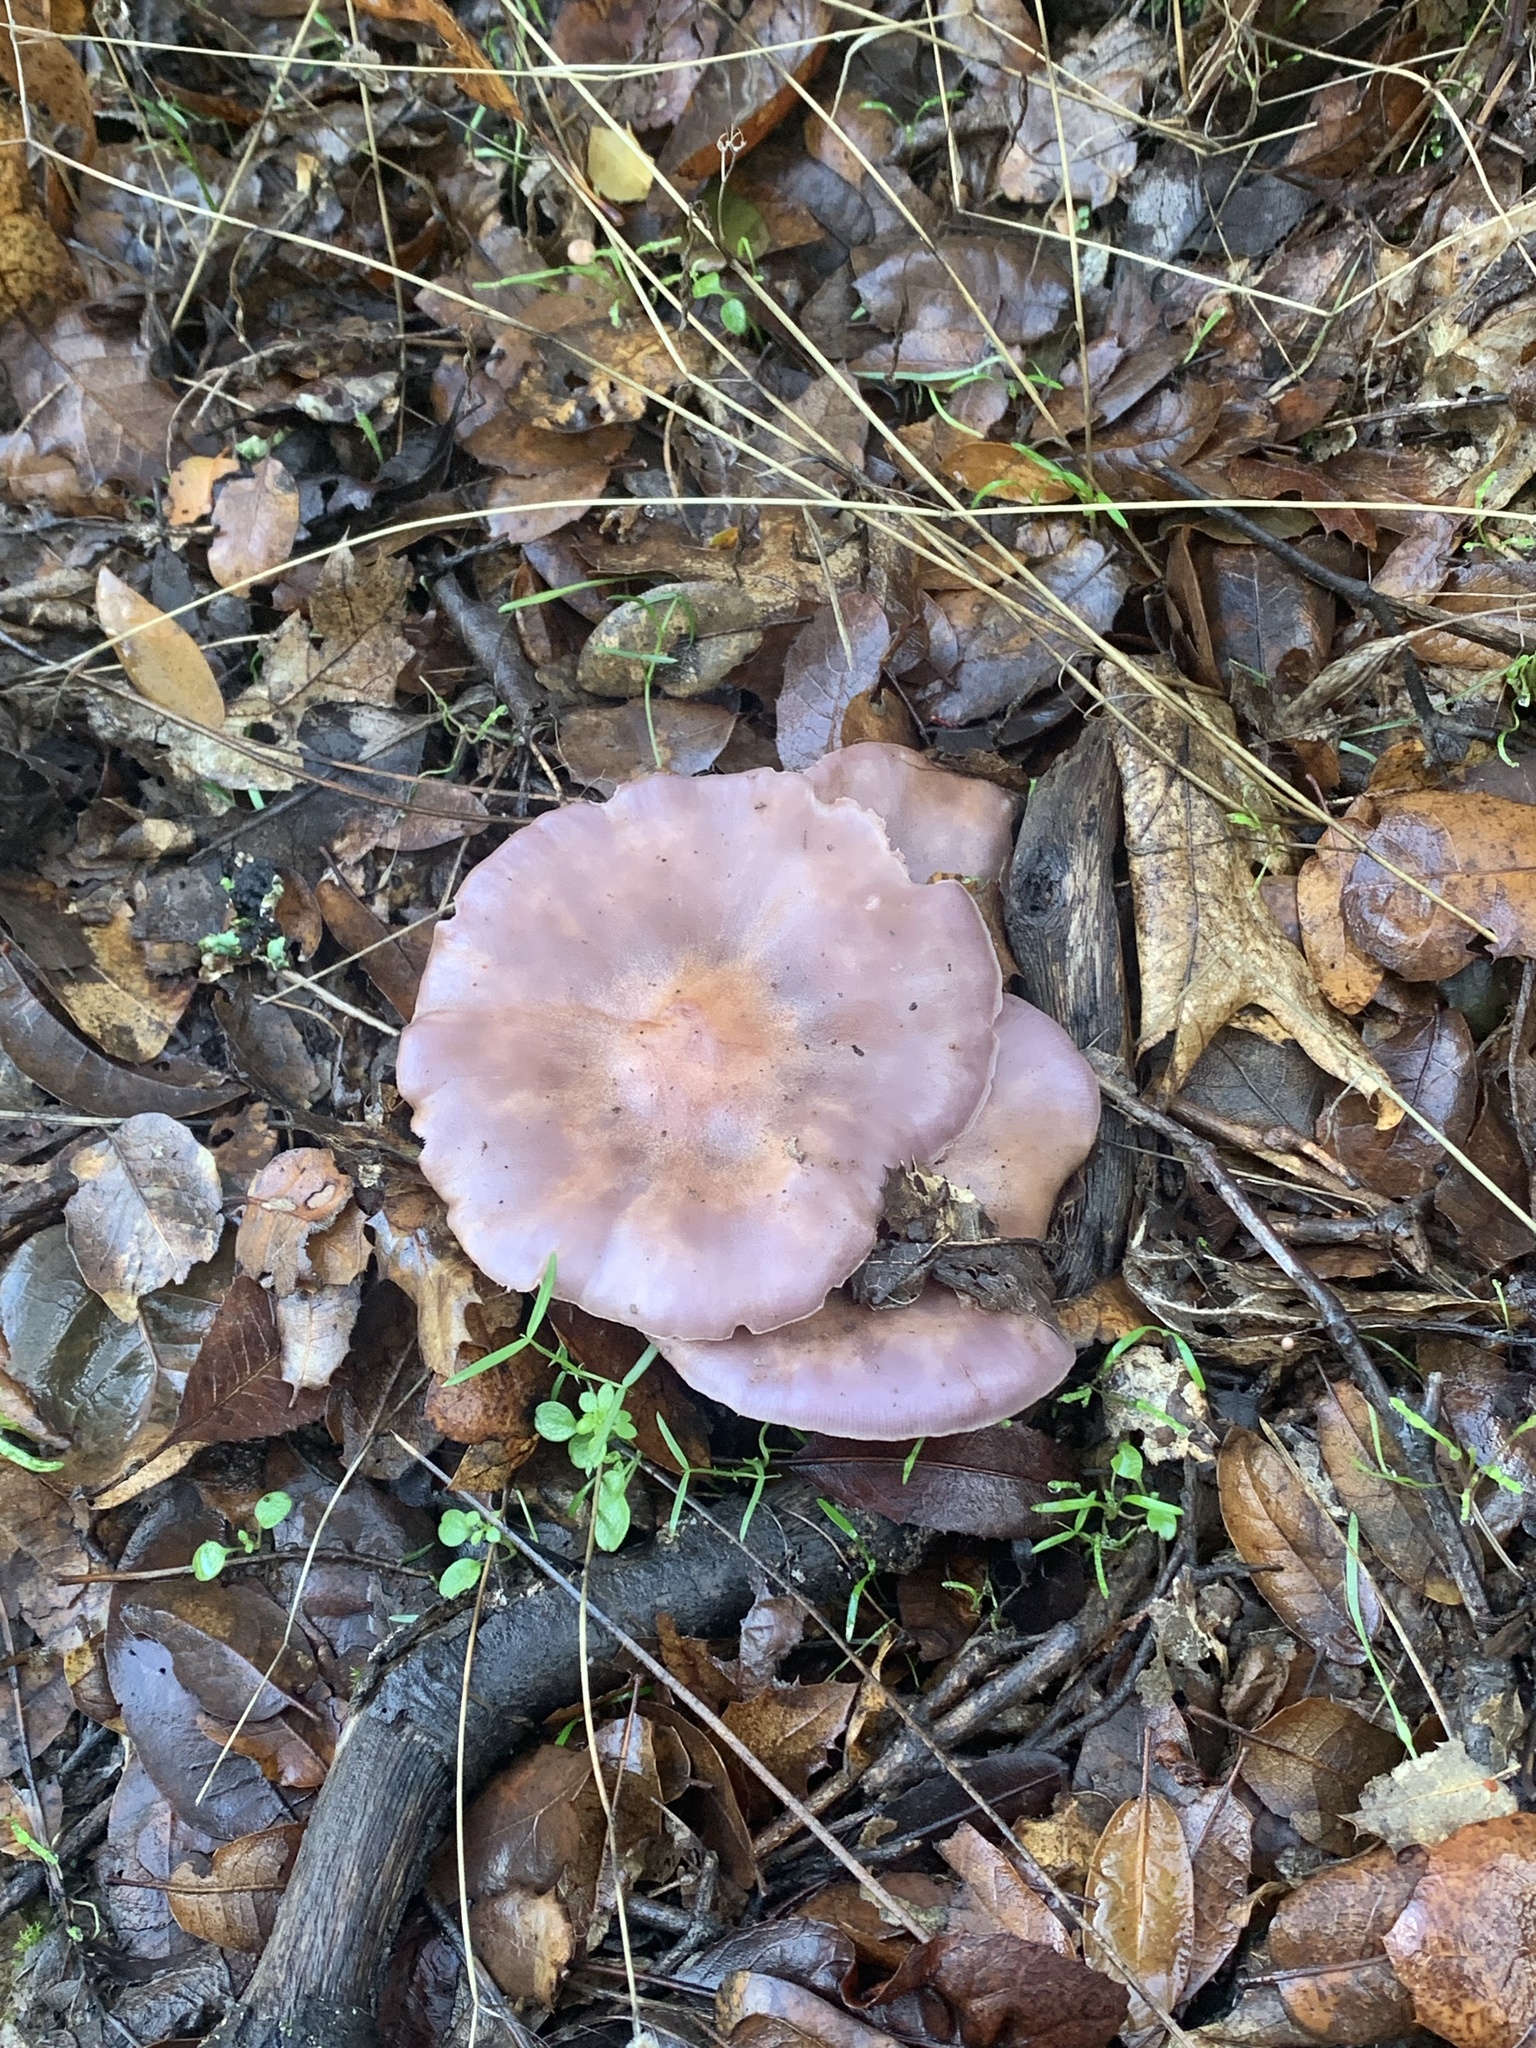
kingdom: Fungi
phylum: Basidiomycota
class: Agaricomycetes
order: Agaricales
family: Tricholomataceae
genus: Collybia
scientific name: Collybia
